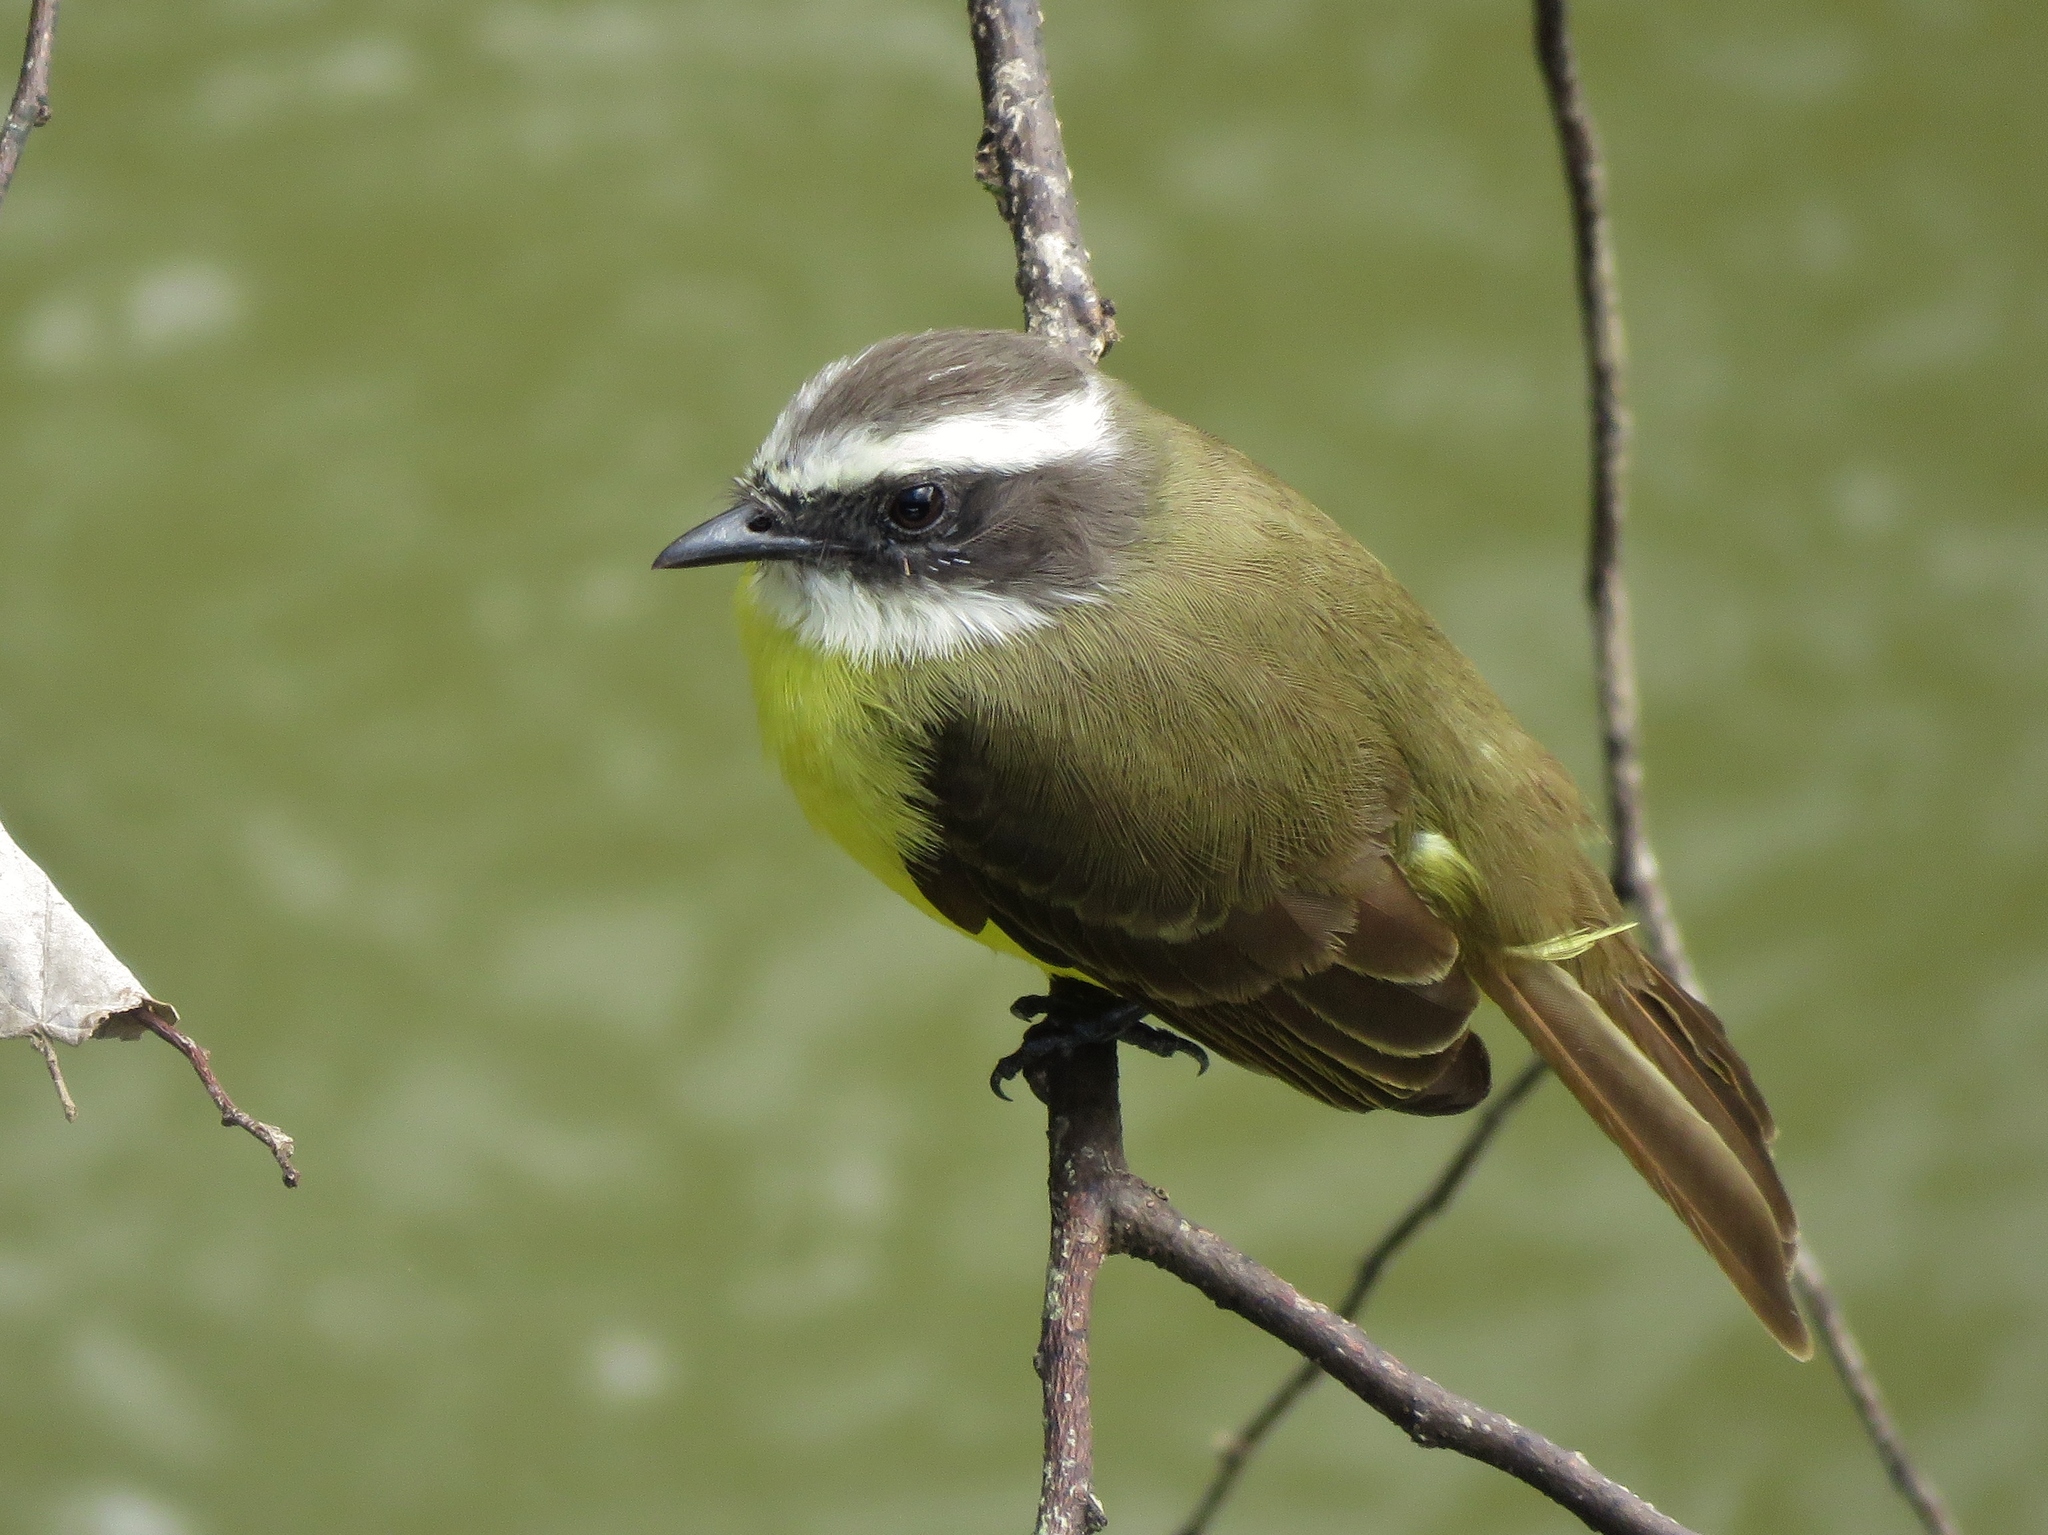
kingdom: Animalia
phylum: Chordata
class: Aves
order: Passeriformes
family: Tyrannidae
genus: Myiozetetes
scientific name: Myiozetetes similis
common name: Social flycatcher
